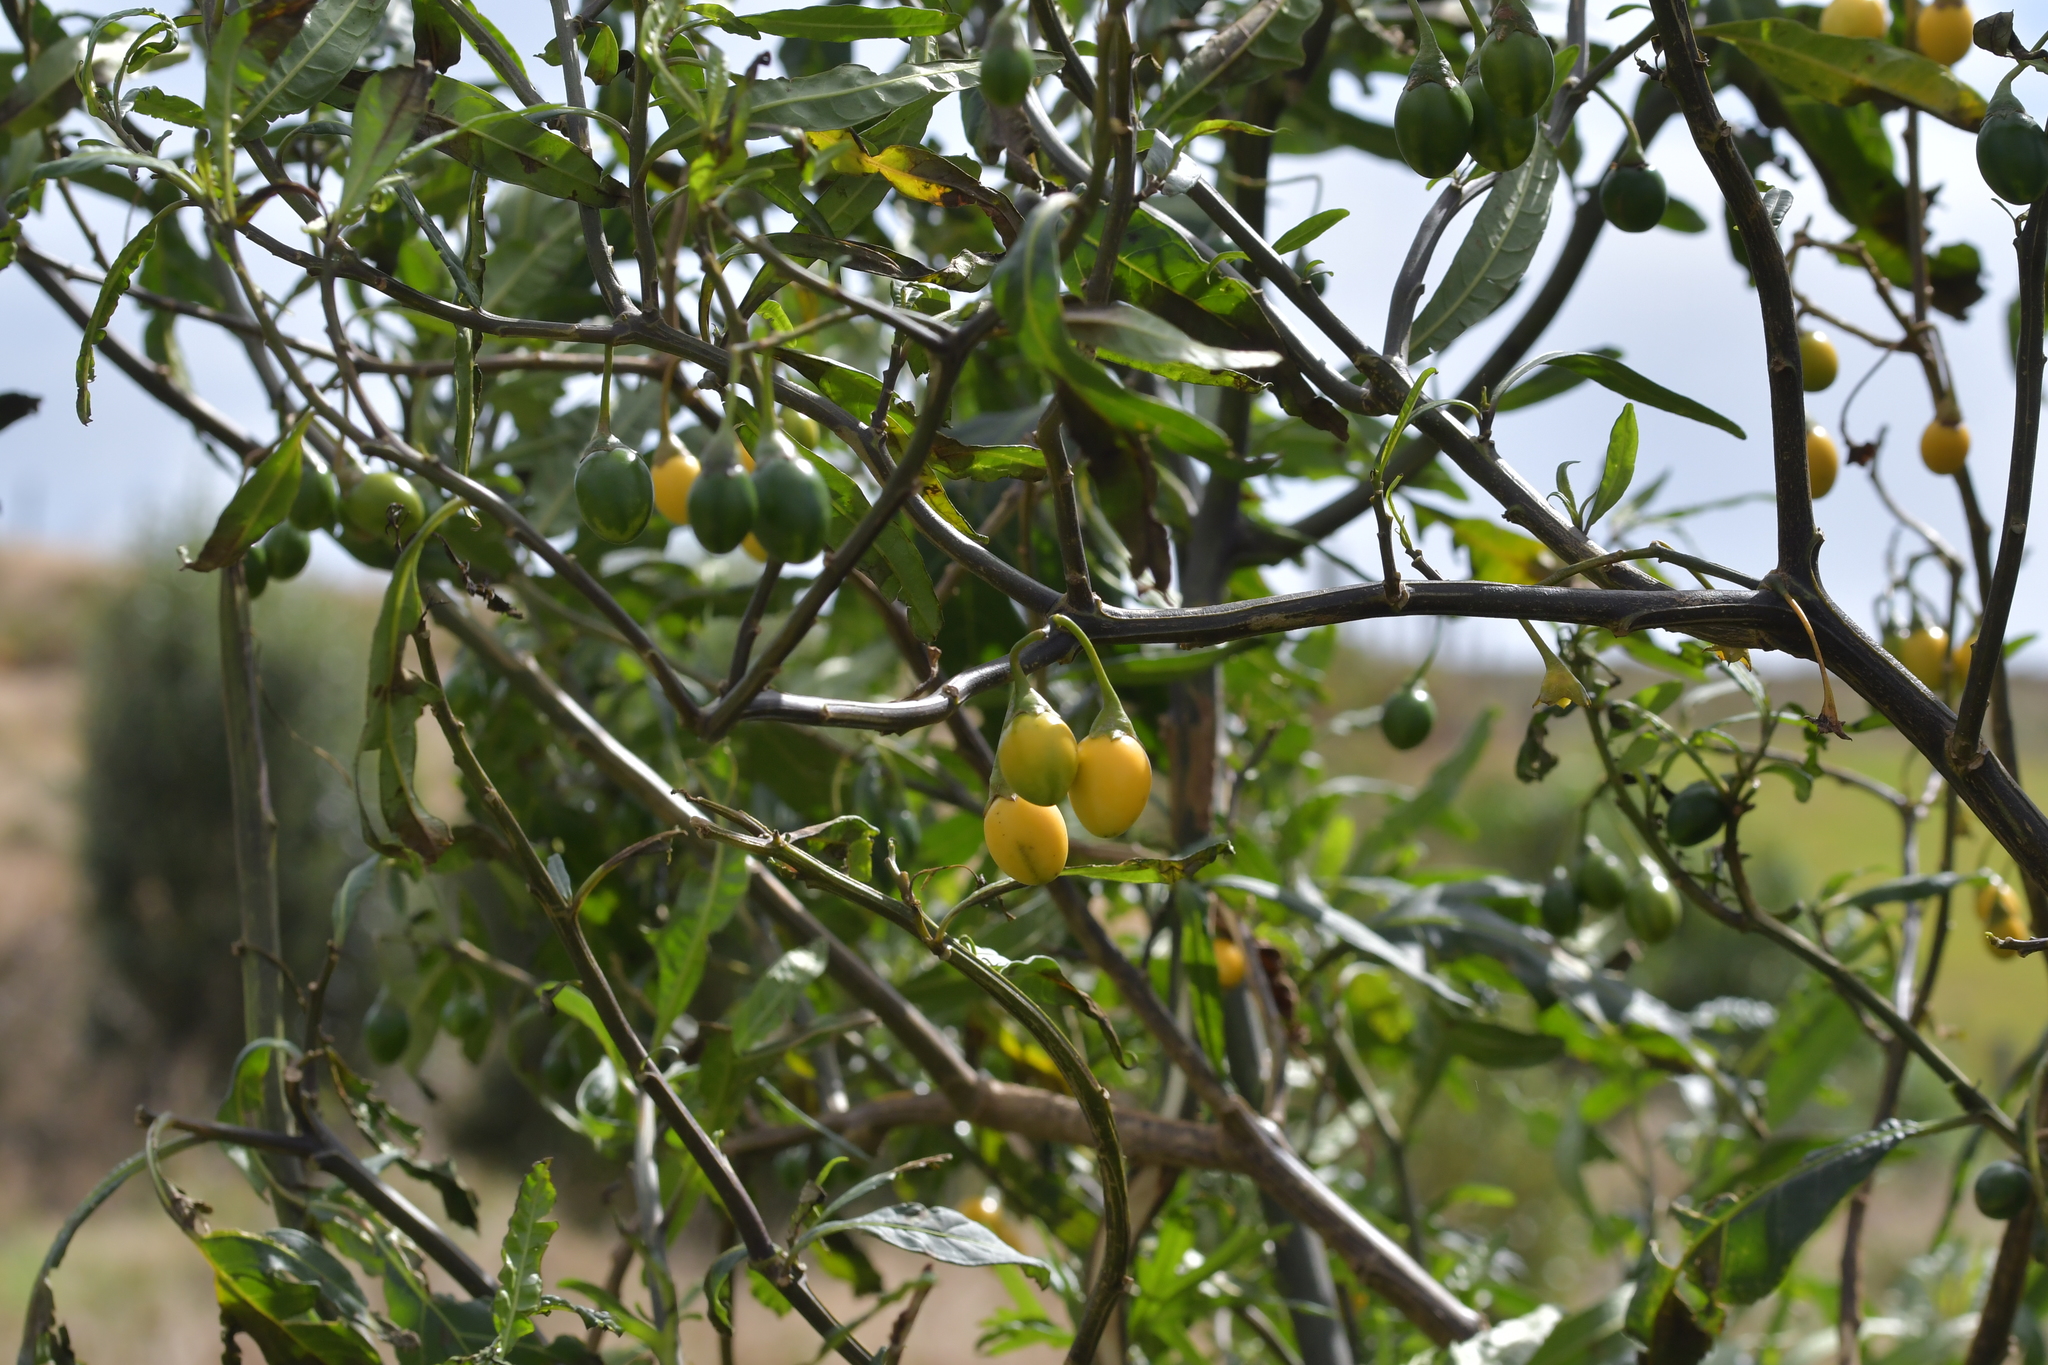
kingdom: Plantae
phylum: Tracheophyta
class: Magnoliopsida
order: Solanales
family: Solanaceae
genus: Solanum
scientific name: Solanum laciniatum
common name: Kangaroo-apple
